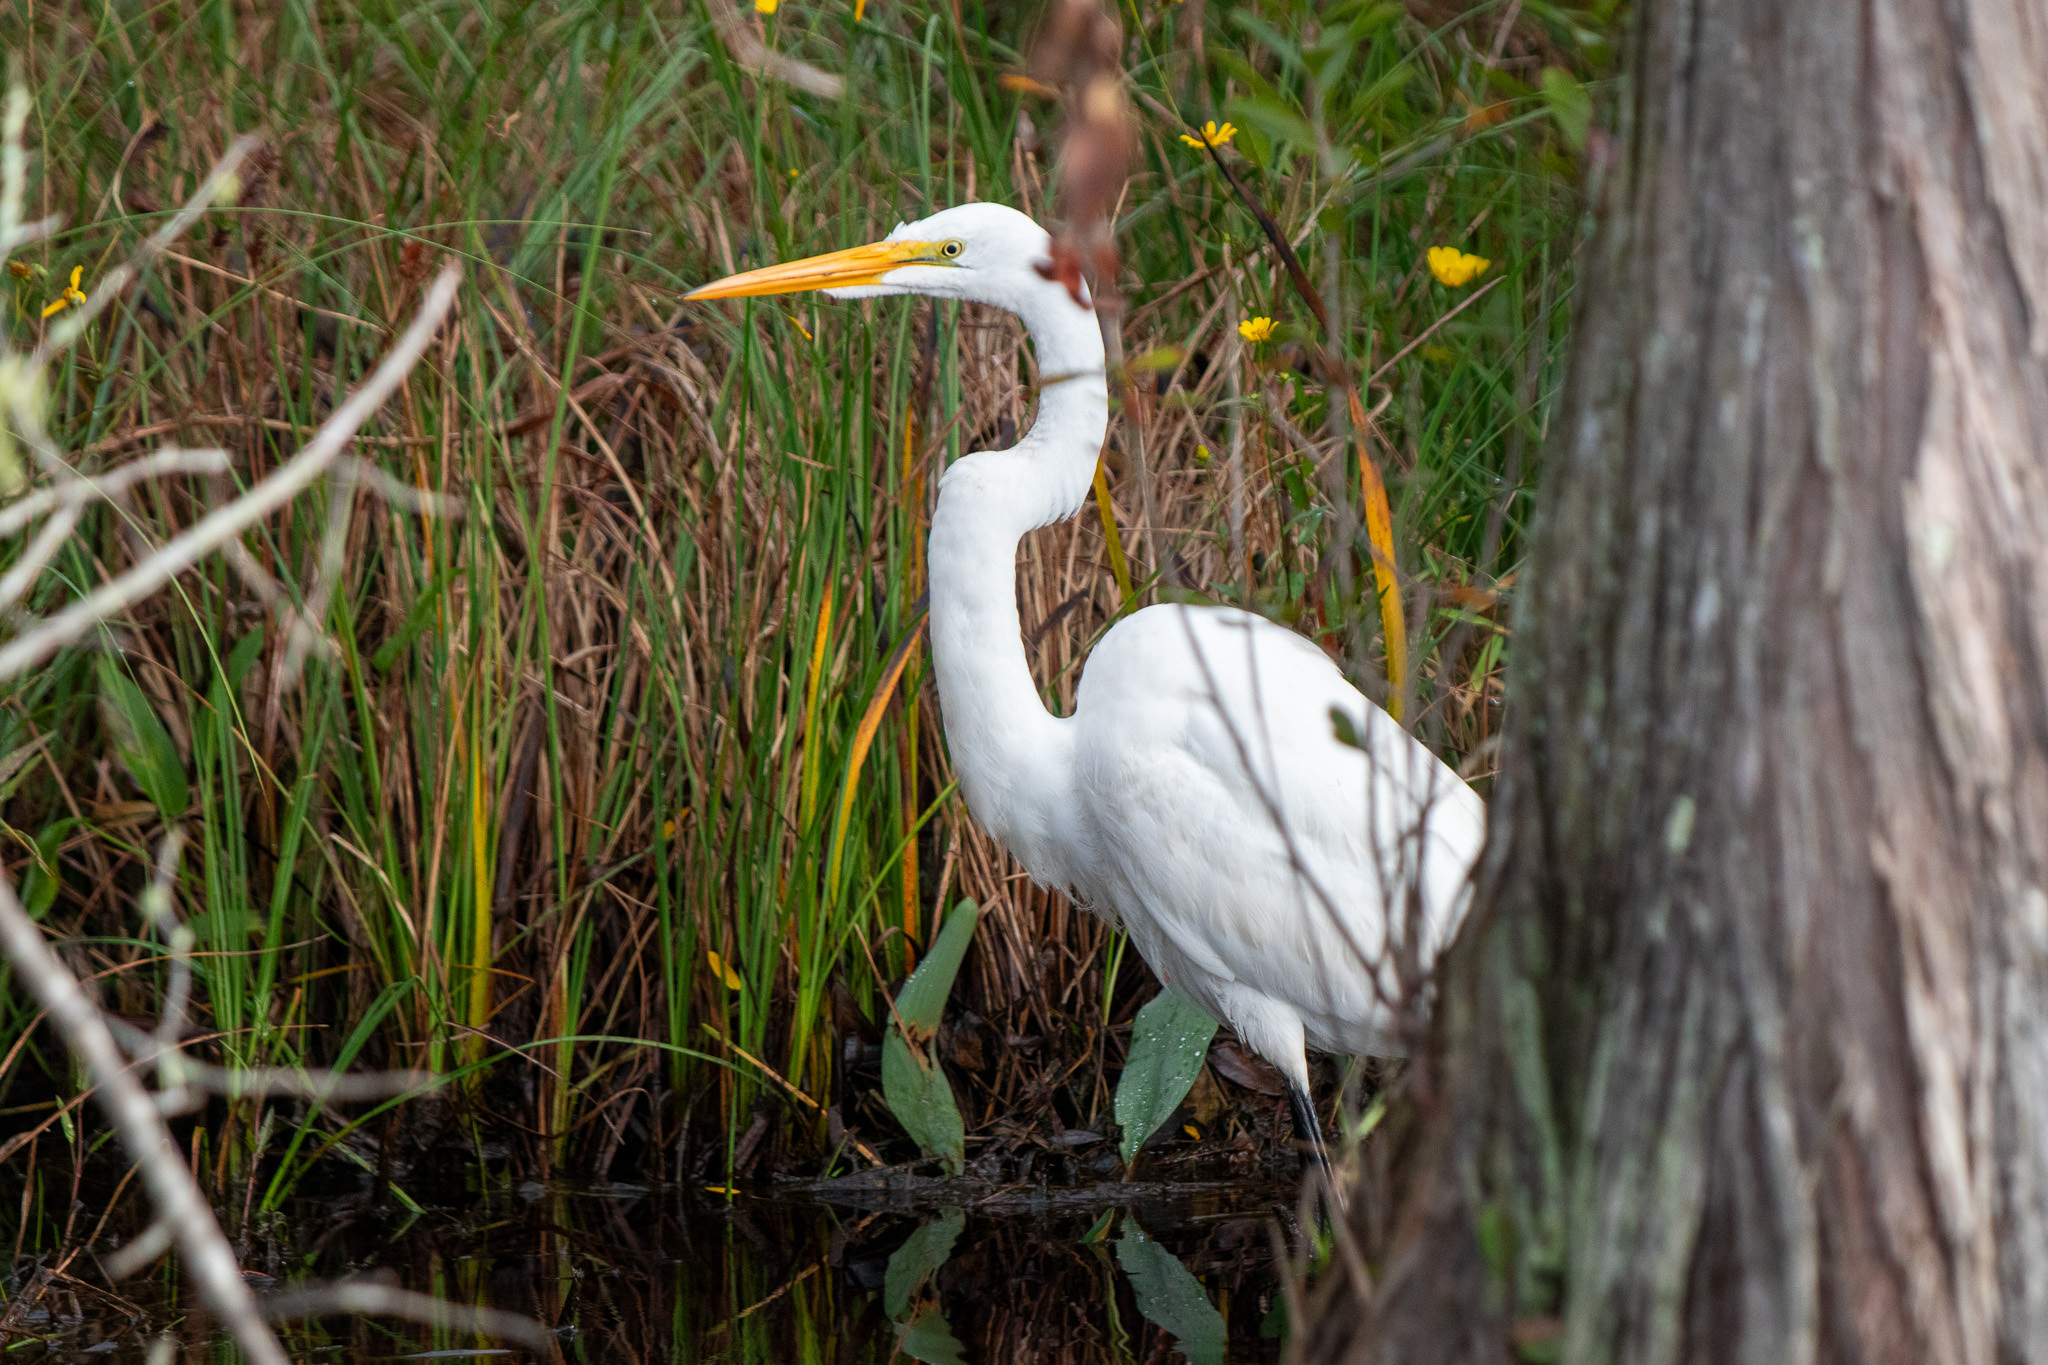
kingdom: Animalia
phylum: Chordata
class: Aves
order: Pelecaniformes
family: Ardeidae
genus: Ardea
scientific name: Ardea alba
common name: Great egret
